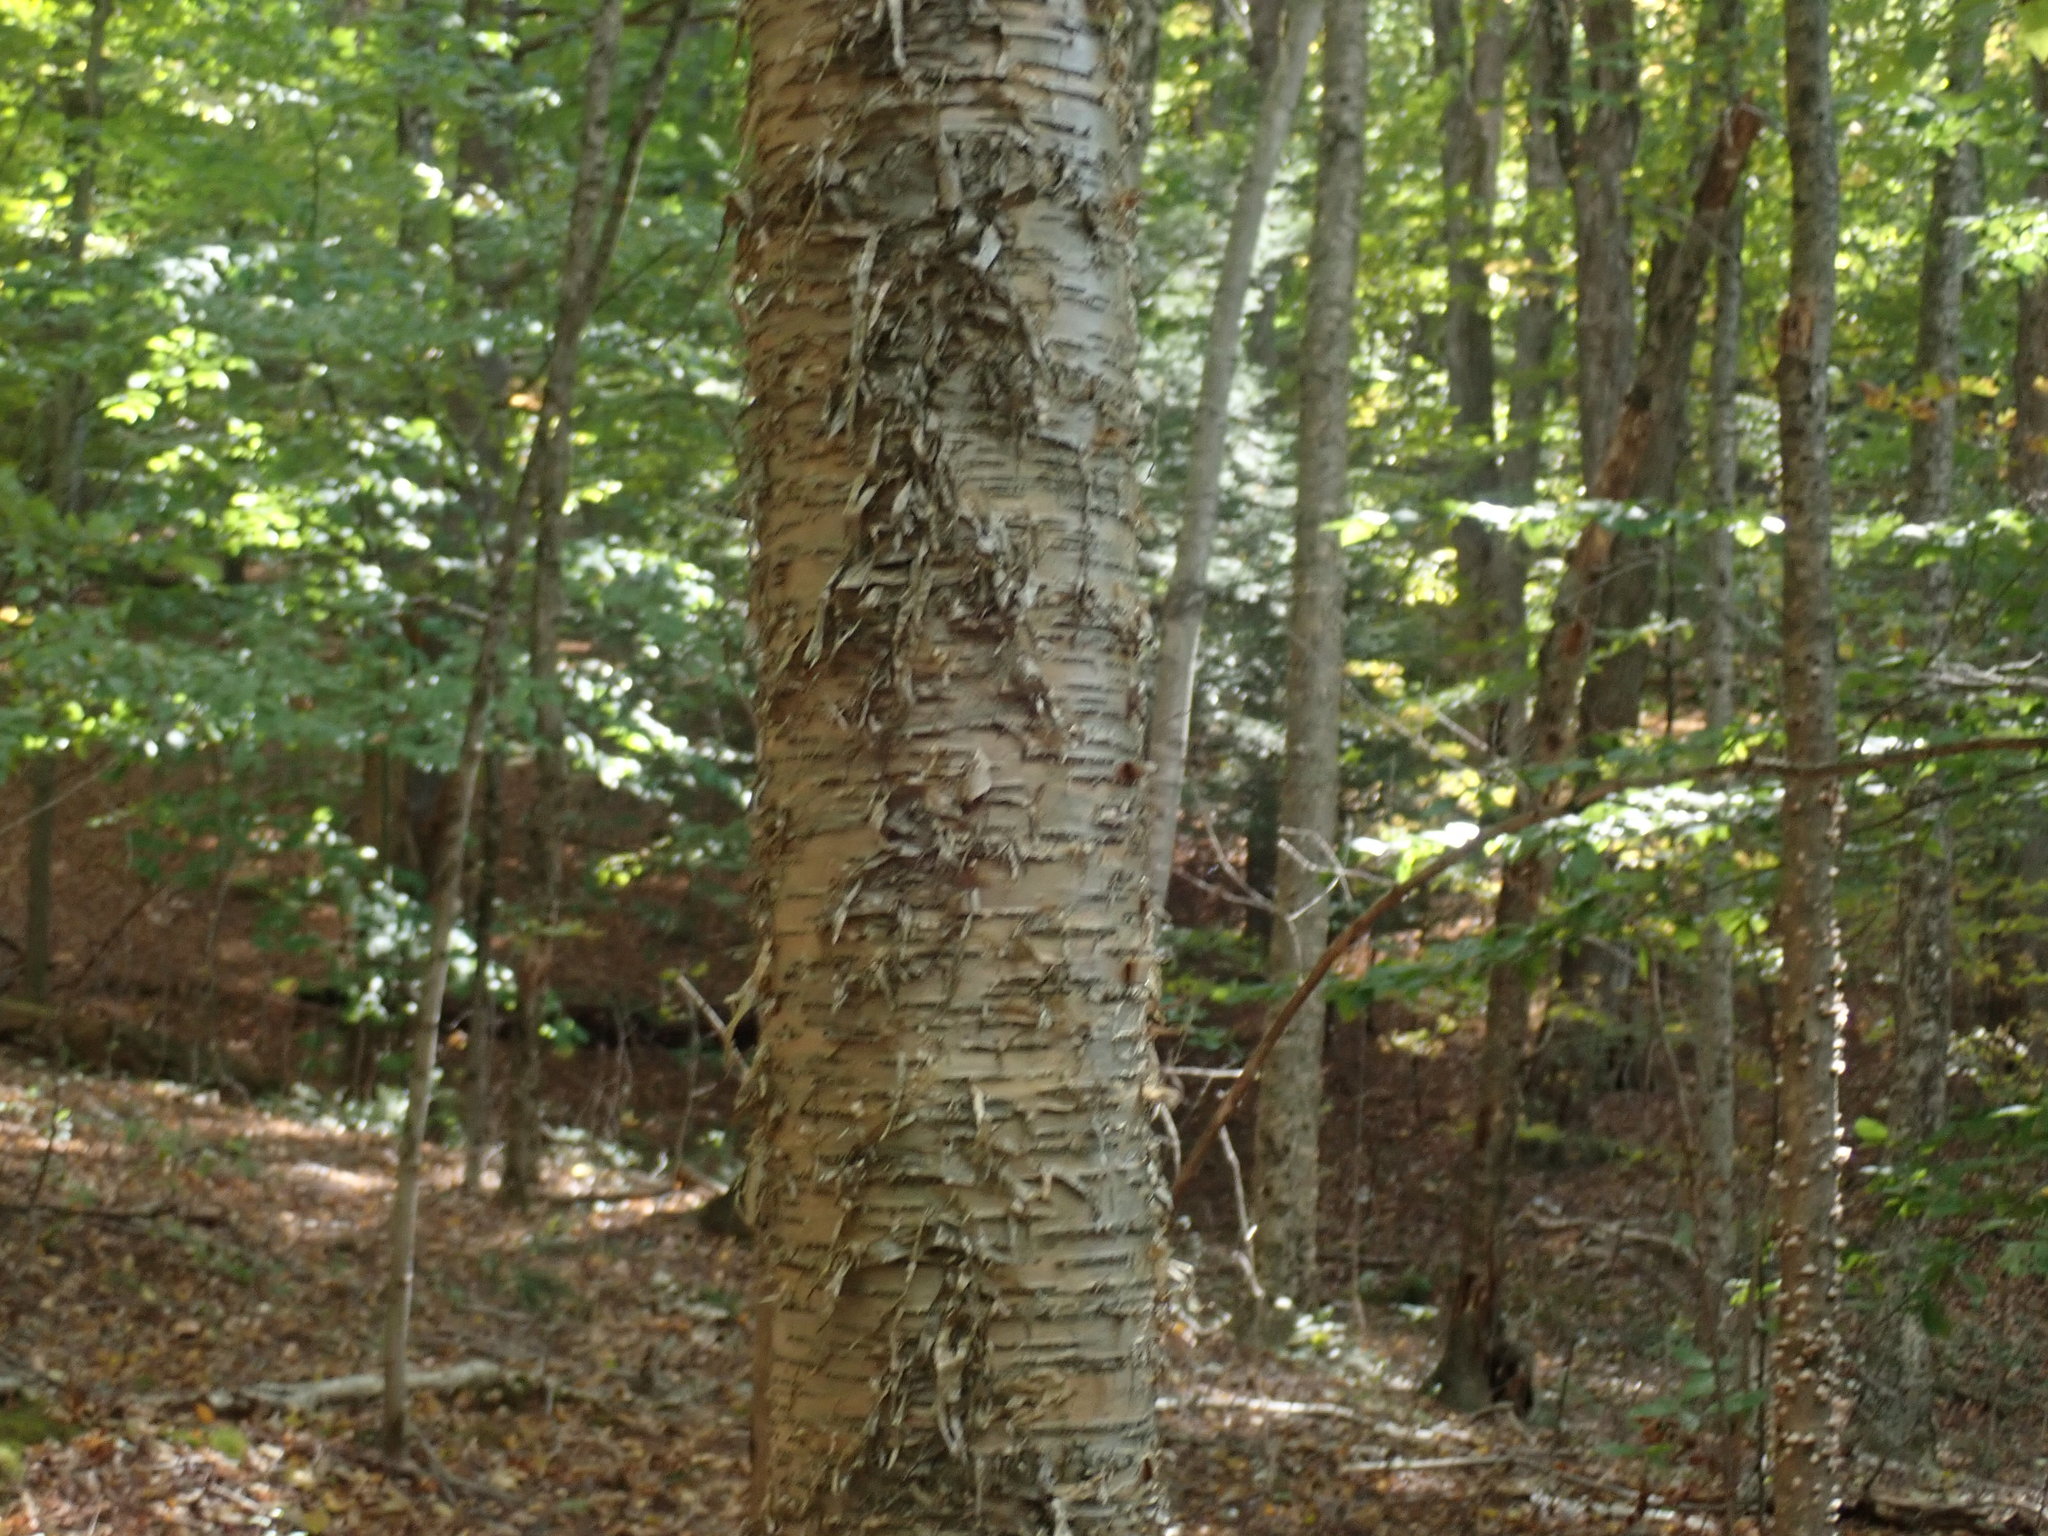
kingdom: Plantae
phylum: Tracheophyta
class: Magnoliopsida
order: Fagales
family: Betulaceae
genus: Betula
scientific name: Betula alleghaniensis
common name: Yellow birch
